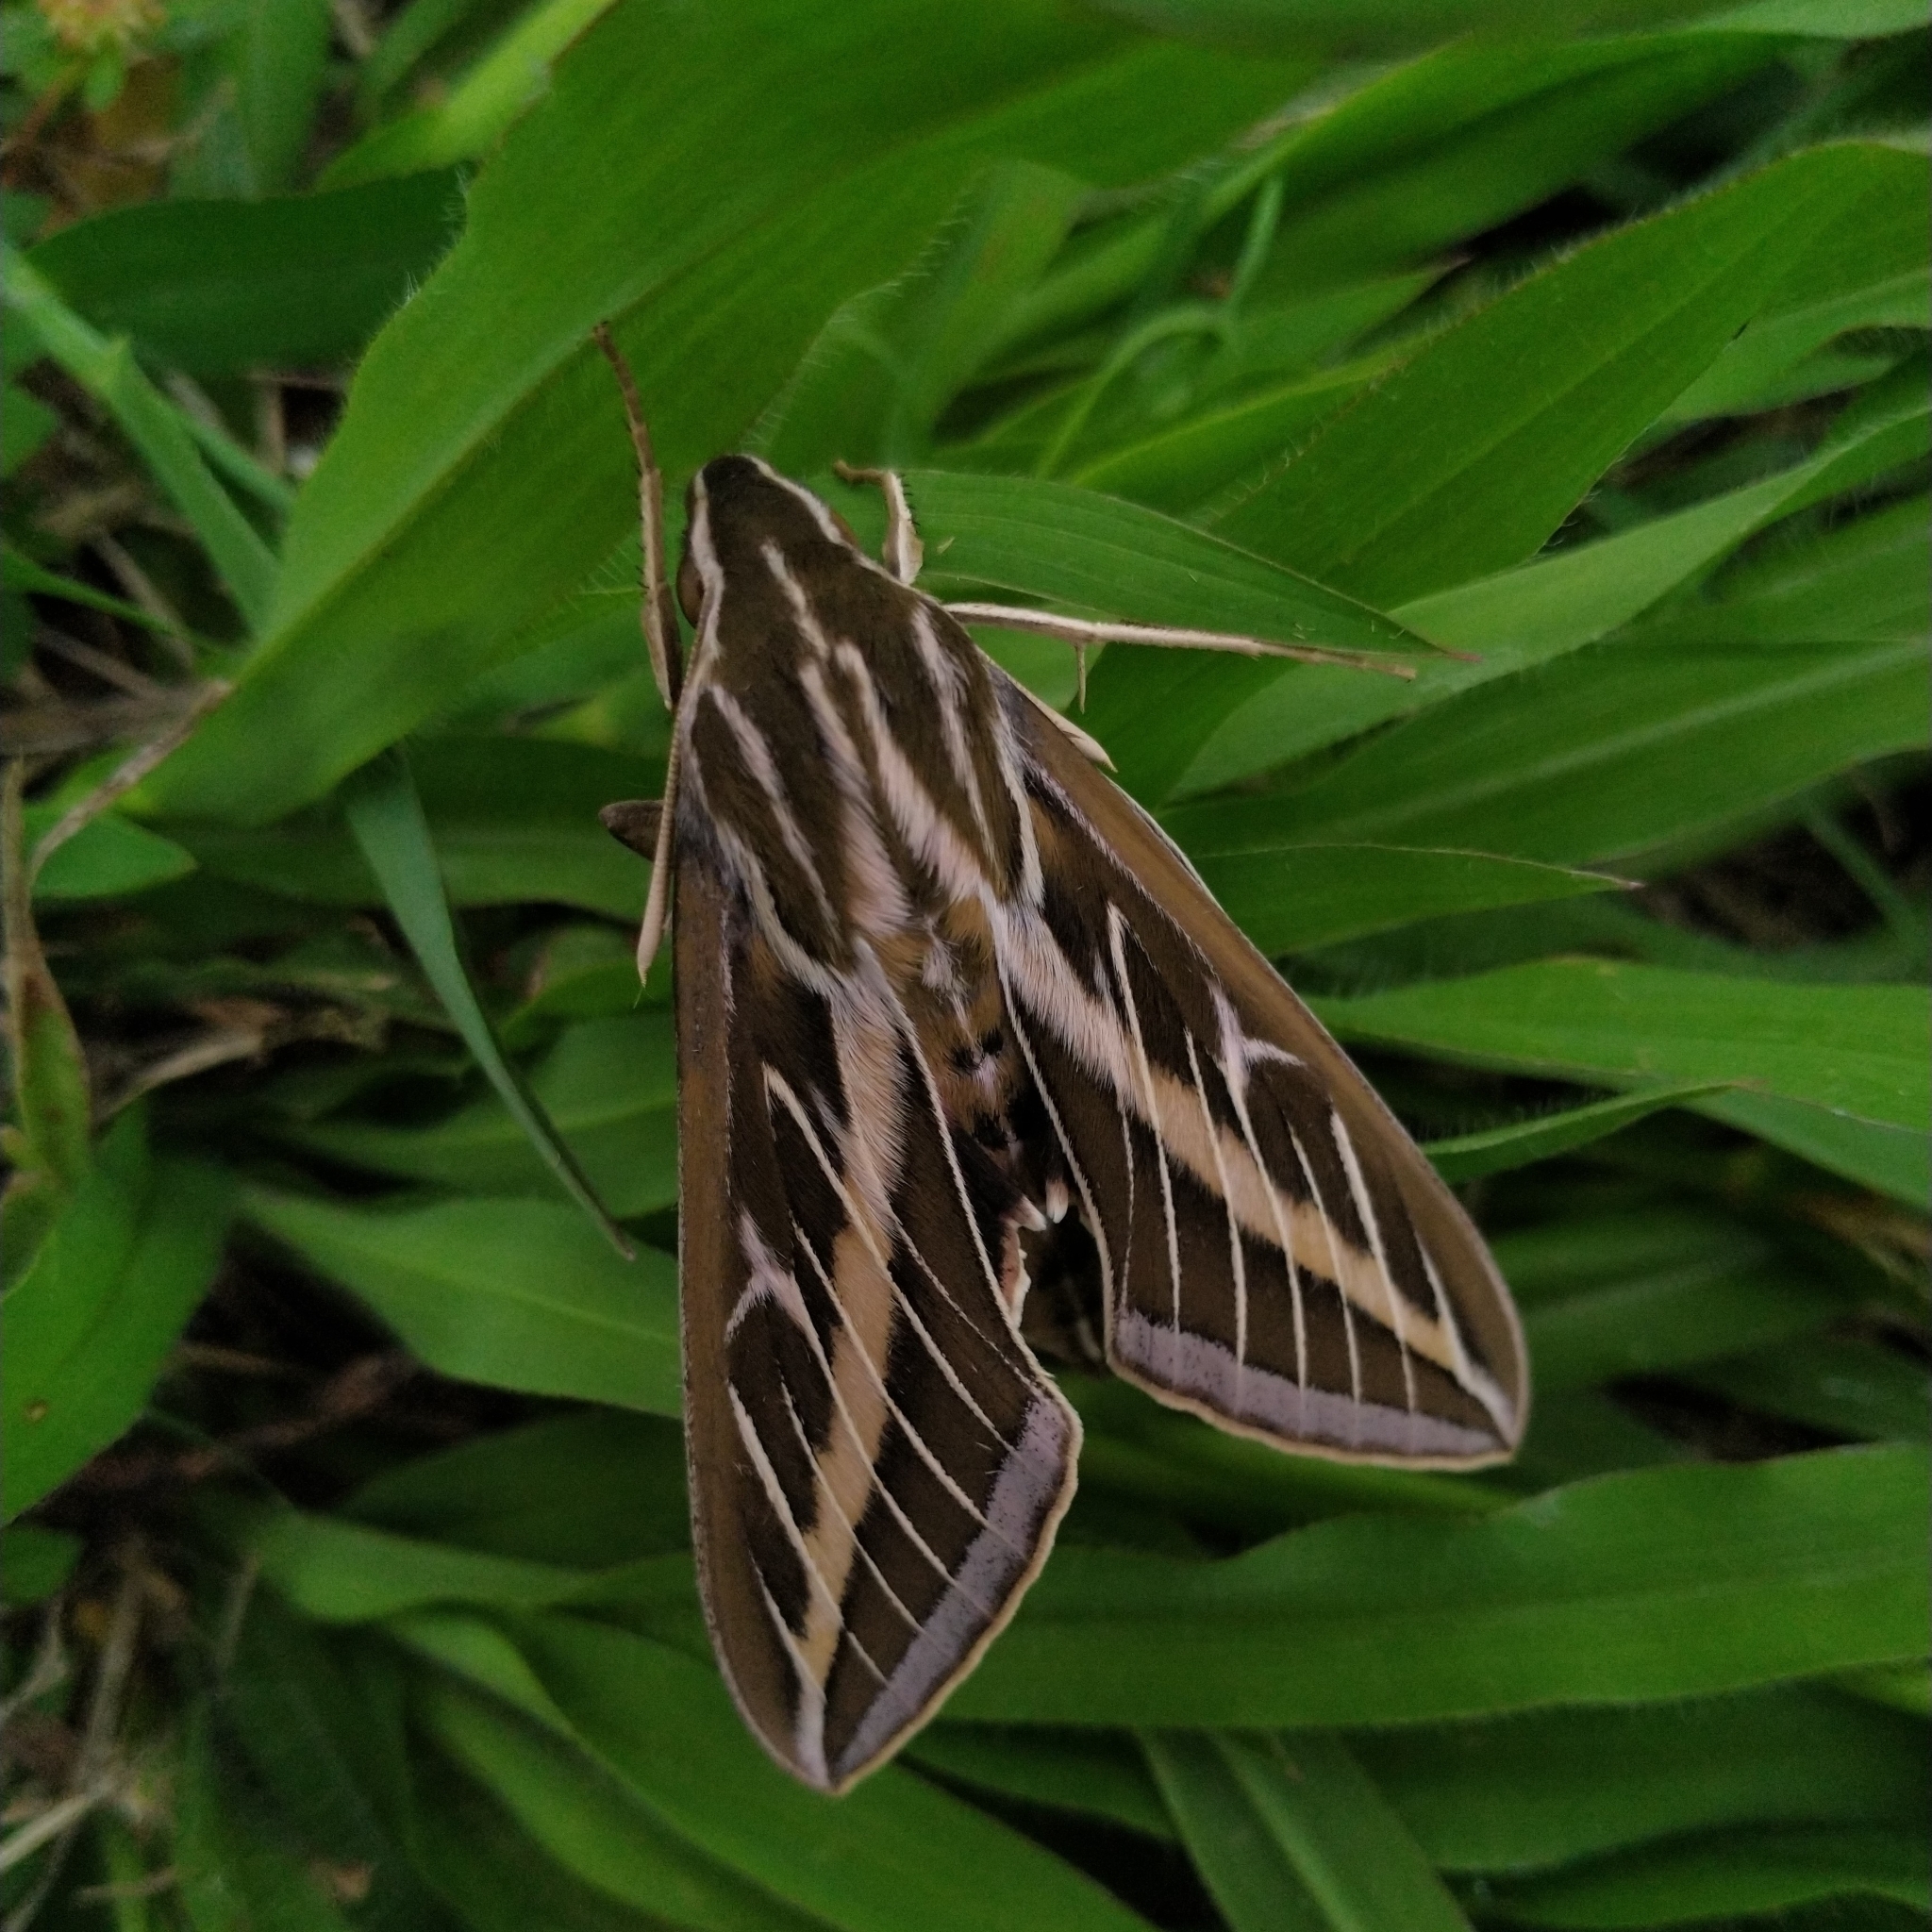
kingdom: Animalia
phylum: Arthropoda
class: Insecta
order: Lepidoptera
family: Sphingidae
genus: Hyles
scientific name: Hyles lineata
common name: White-lined sphinx
